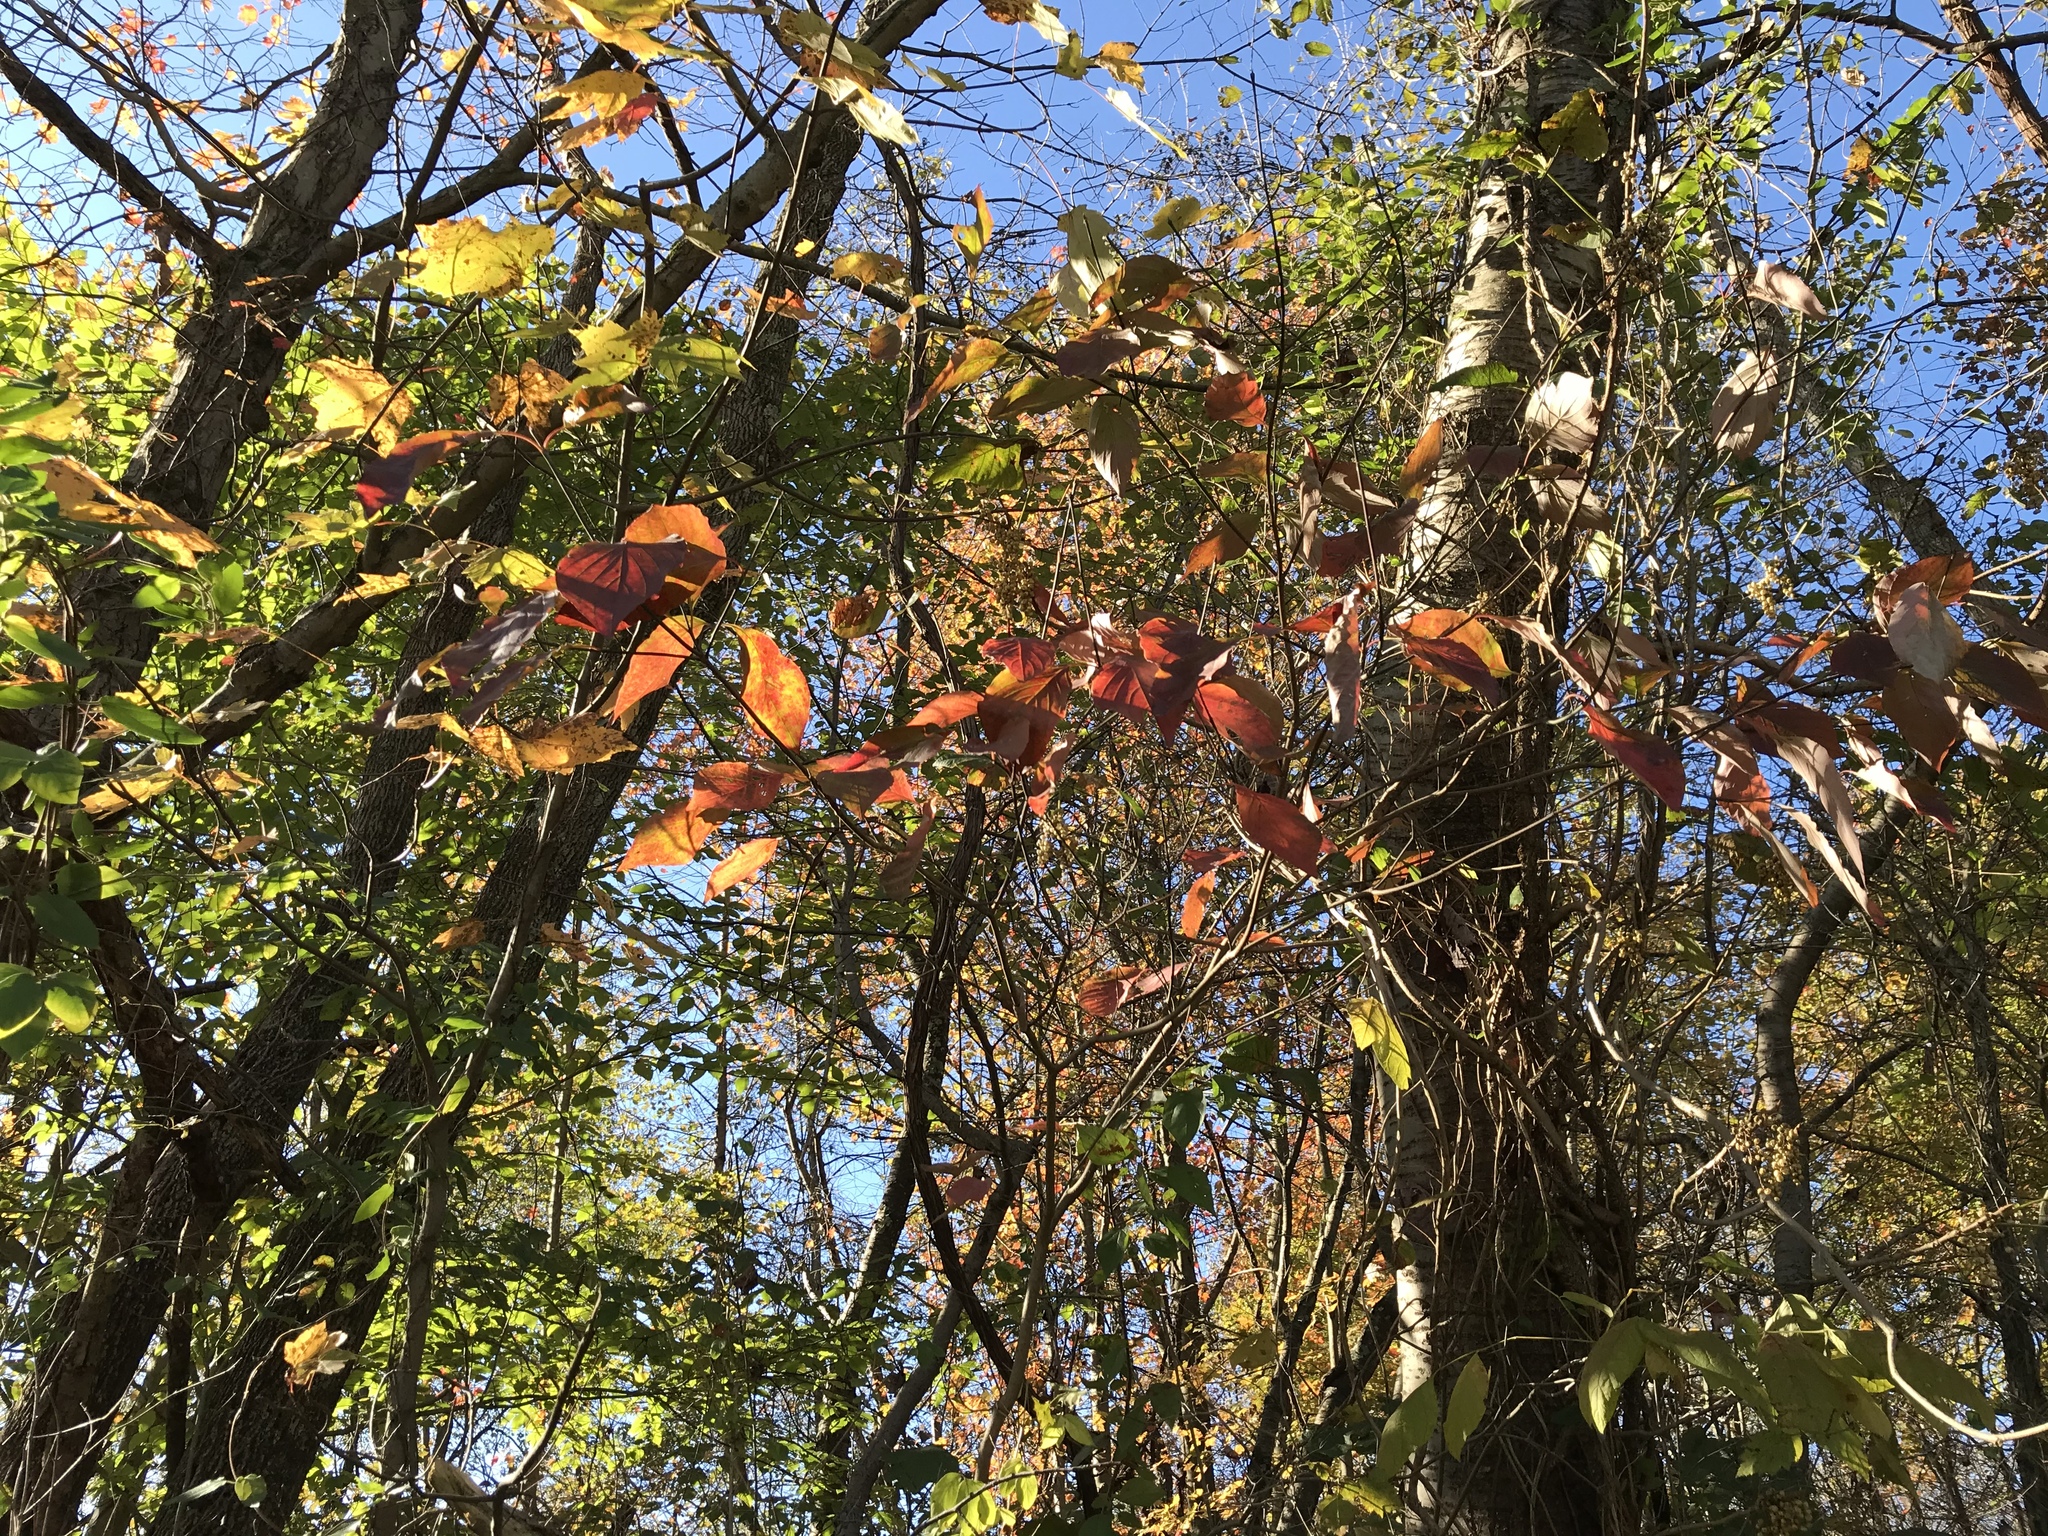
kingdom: Plantae
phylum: Tracheophyta
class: Magnoliopsida
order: Cornales
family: Cornaceae
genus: Cornus
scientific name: Cornus florida
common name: Flowering dogwood
